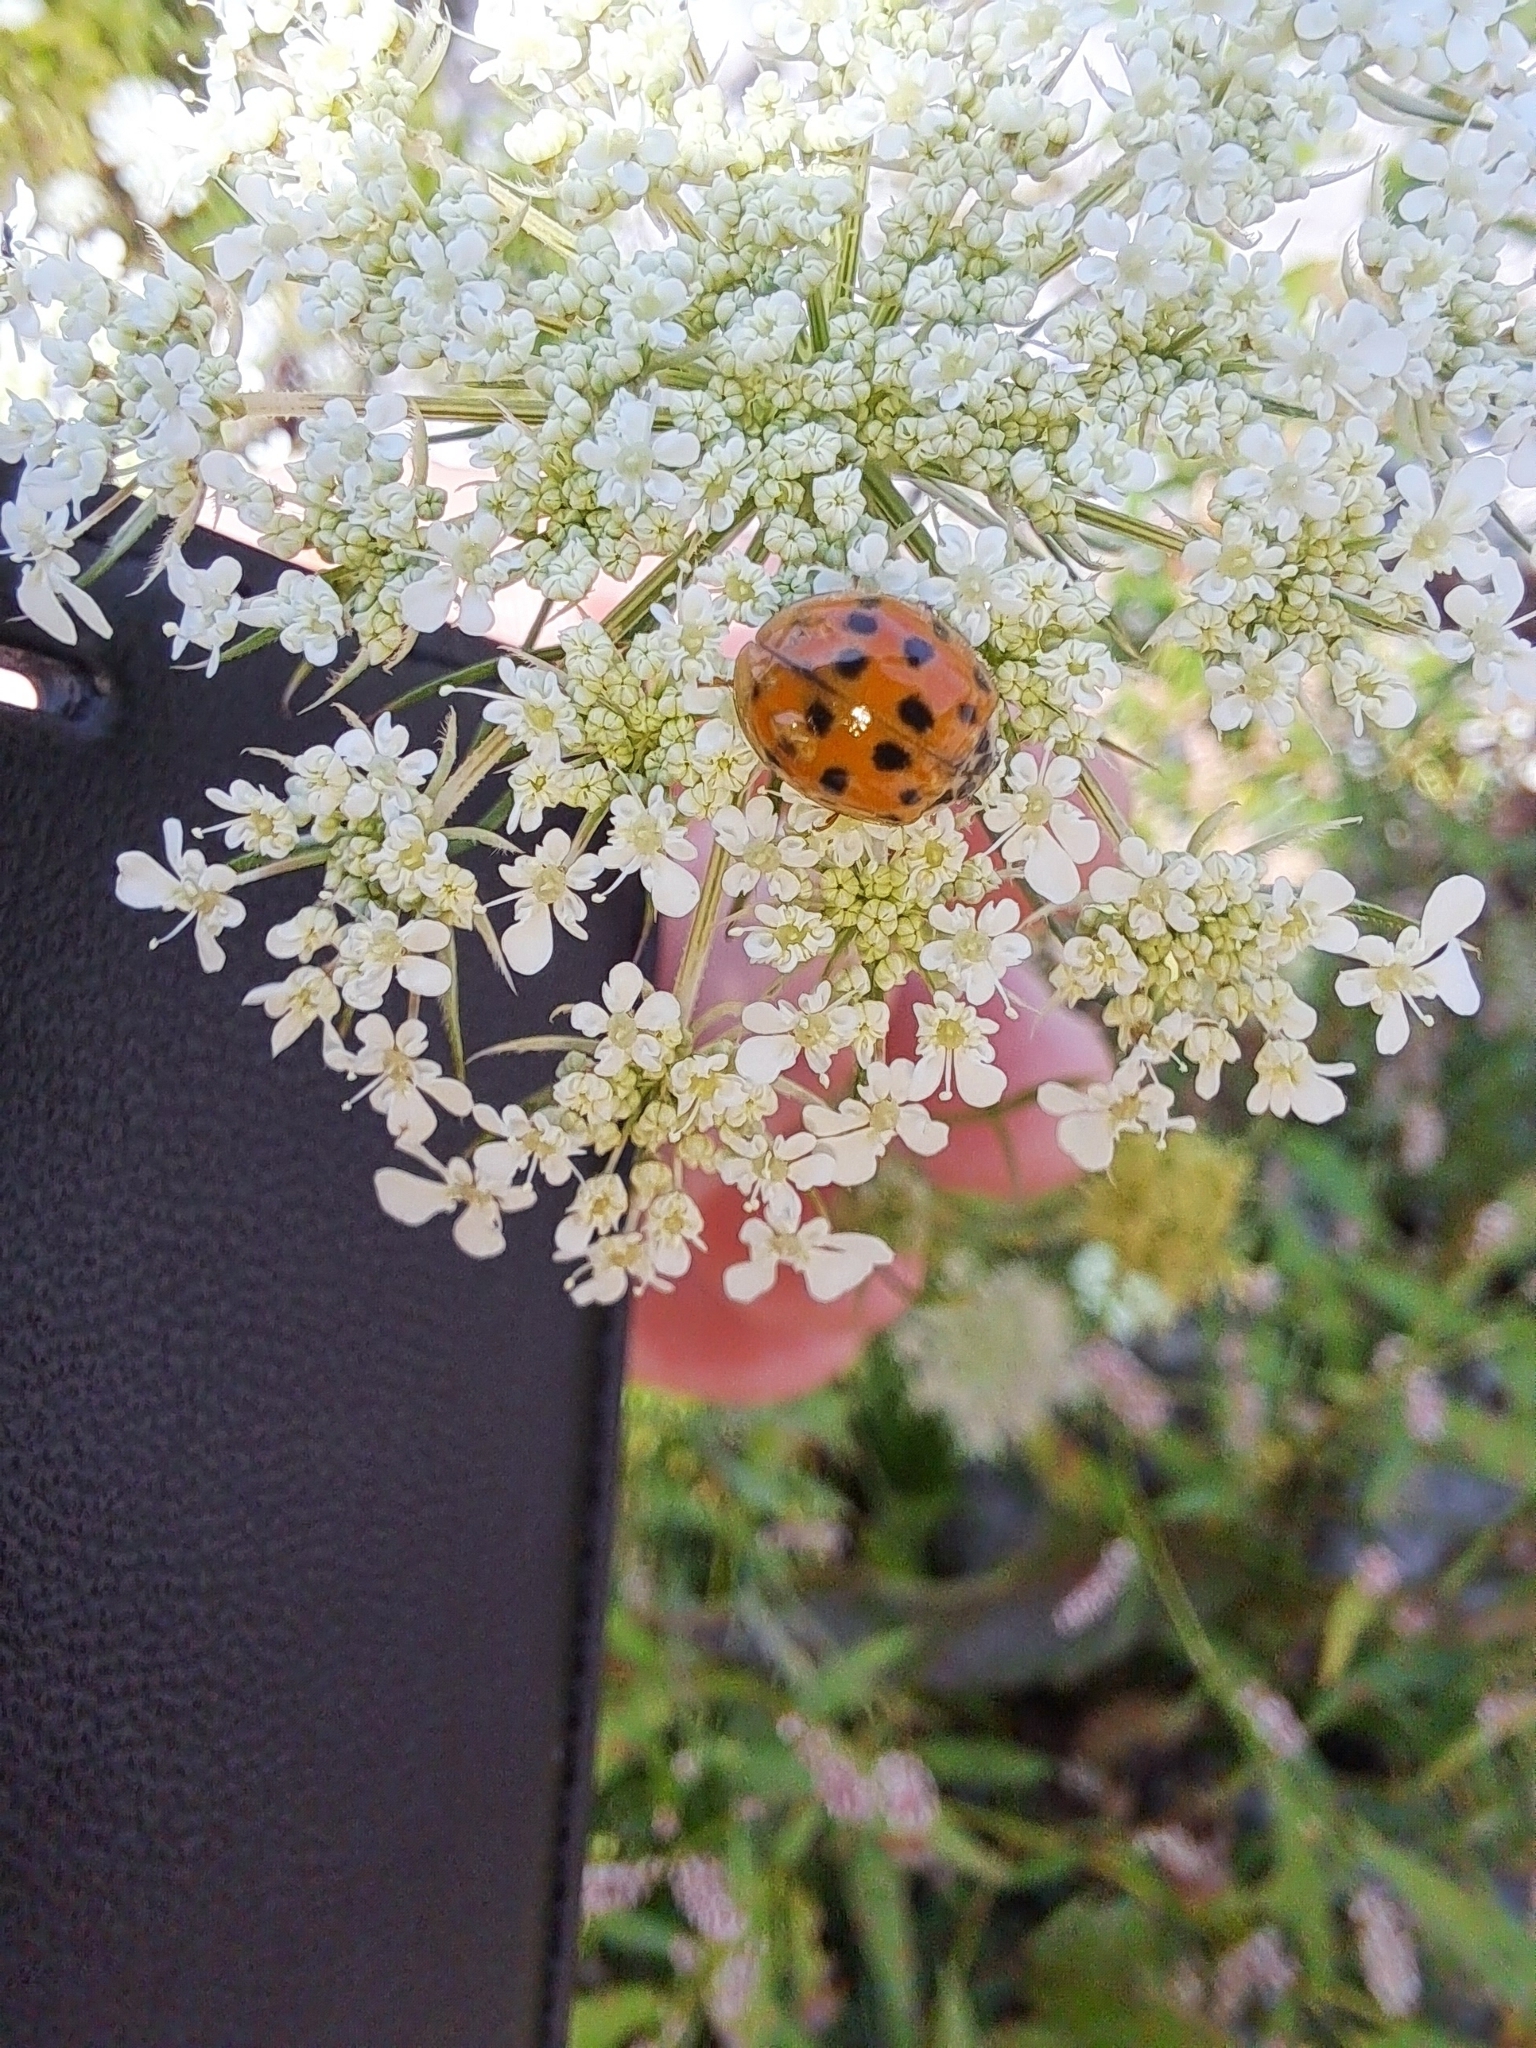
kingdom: Animalia
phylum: Arthropoda
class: Insecta
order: Coleoptera
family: Coccinellidae
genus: Harmonia
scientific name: Harmonia axyridis
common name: Harlequin ladybird
